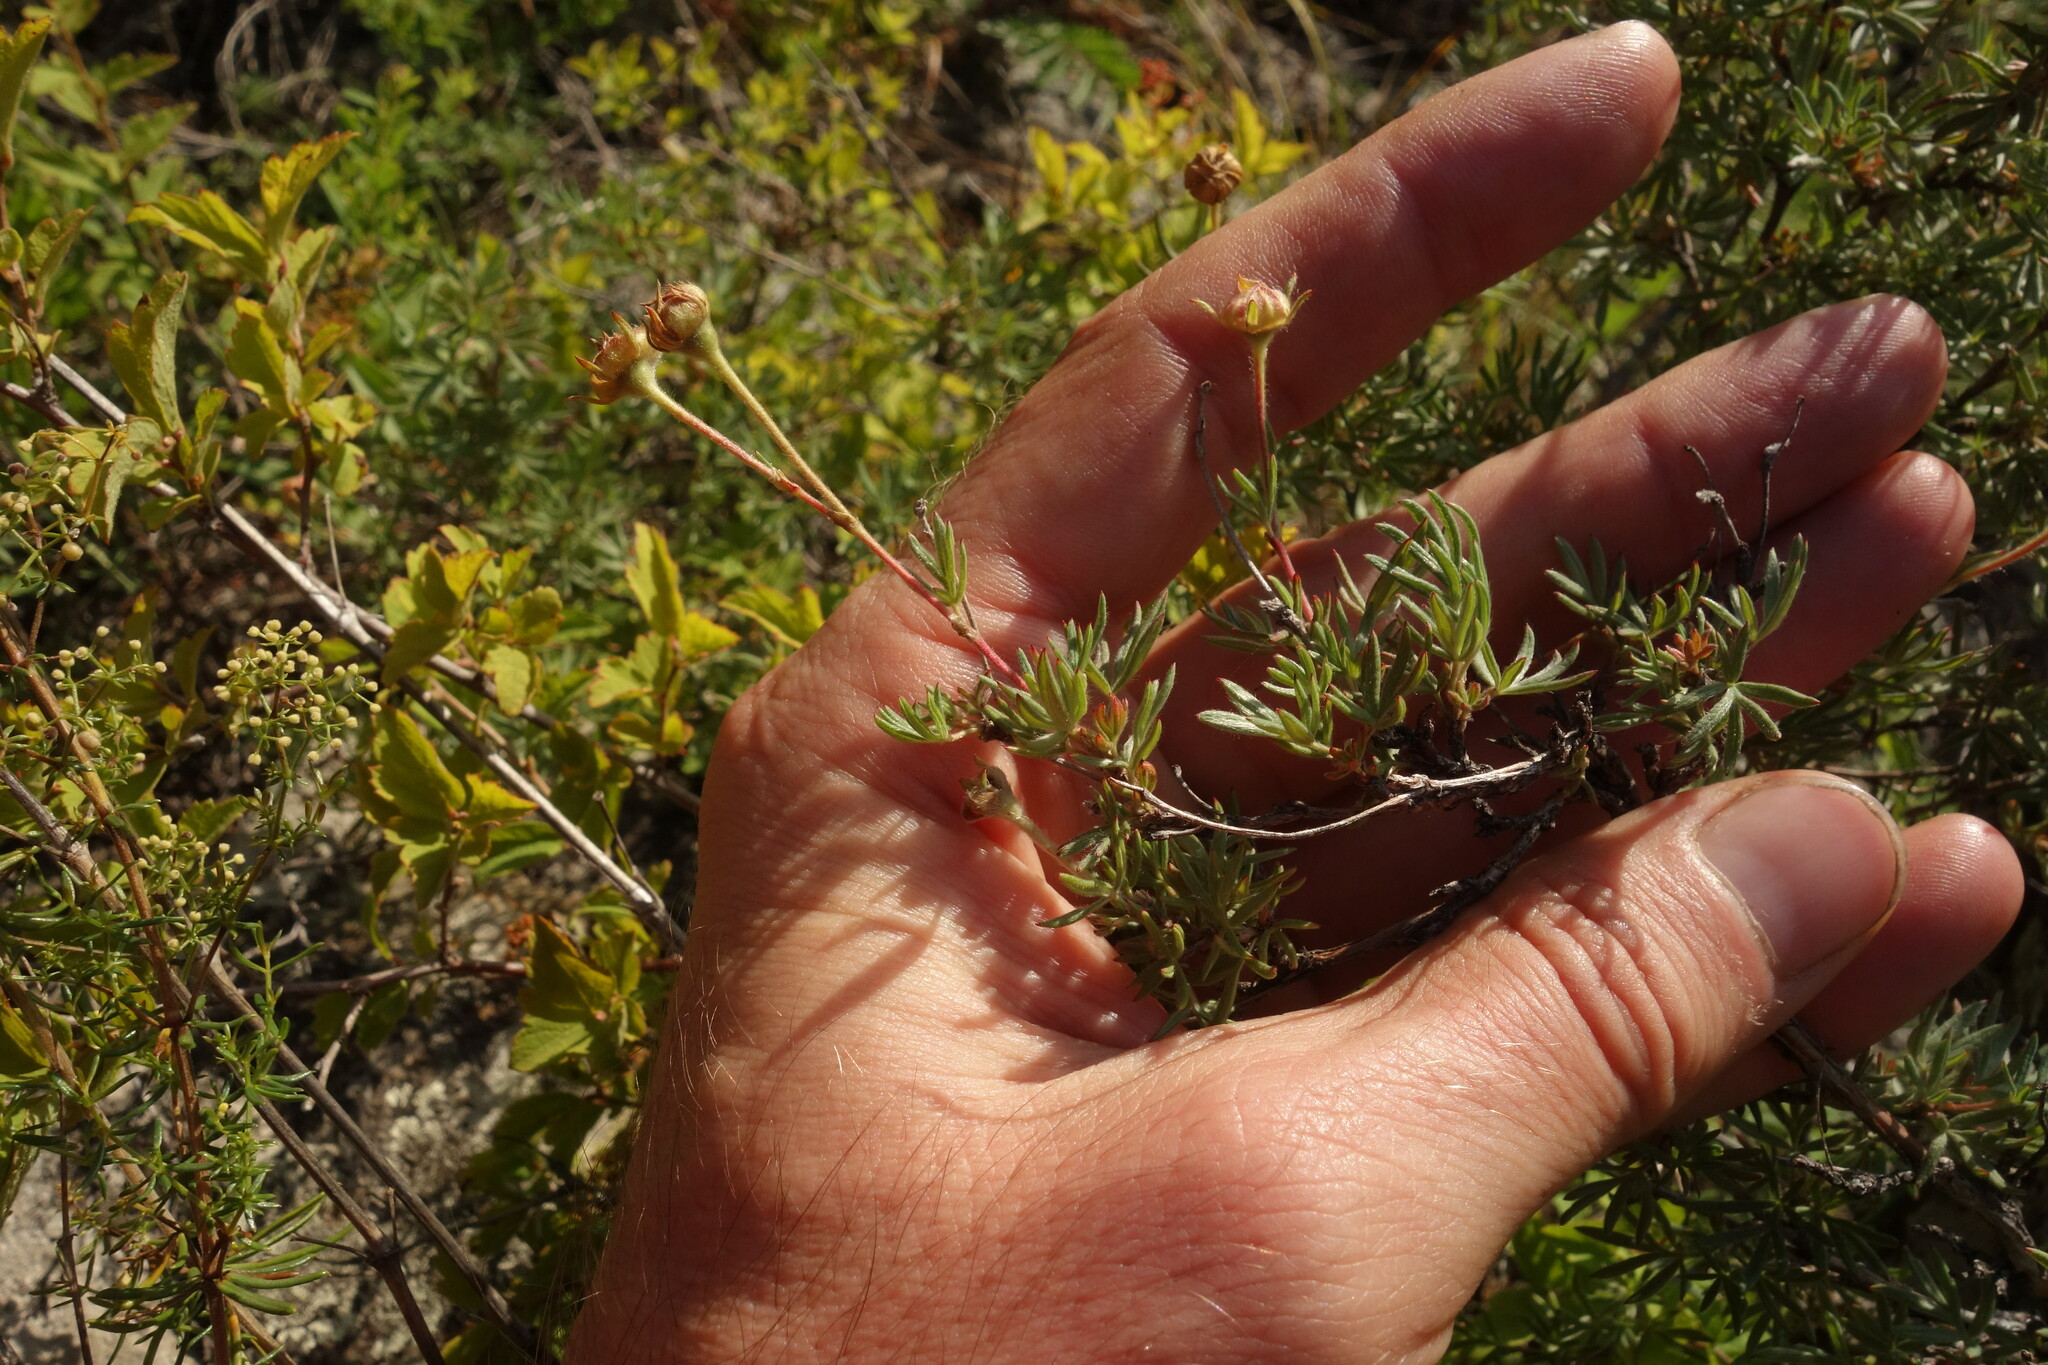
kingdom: Plantae
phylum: Tracheophyta
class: Magnoliopsida
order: Rosales
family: Rosaceae
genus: Dasiphora
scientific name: Dasiphora parvifolia
